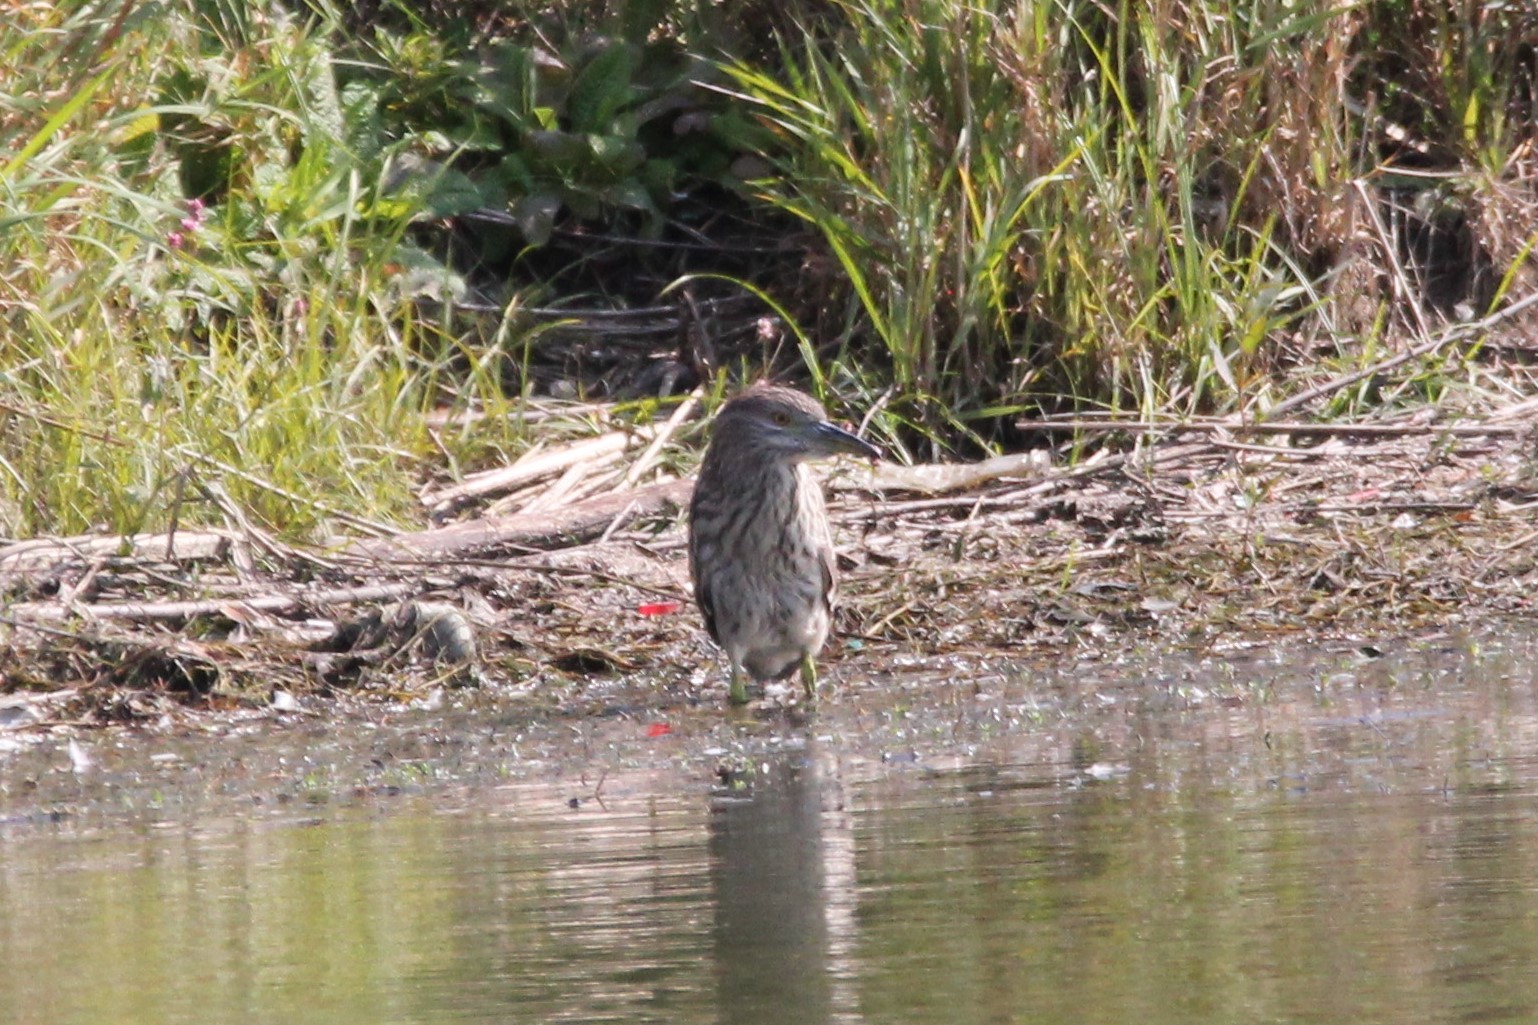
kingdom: Animalia
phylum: Chordata
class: Aves
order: Pelecaniformes
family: Ardeidae
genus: Nycticorax
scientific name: Nycticorax nycticorax
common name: Black-crowned night heron
